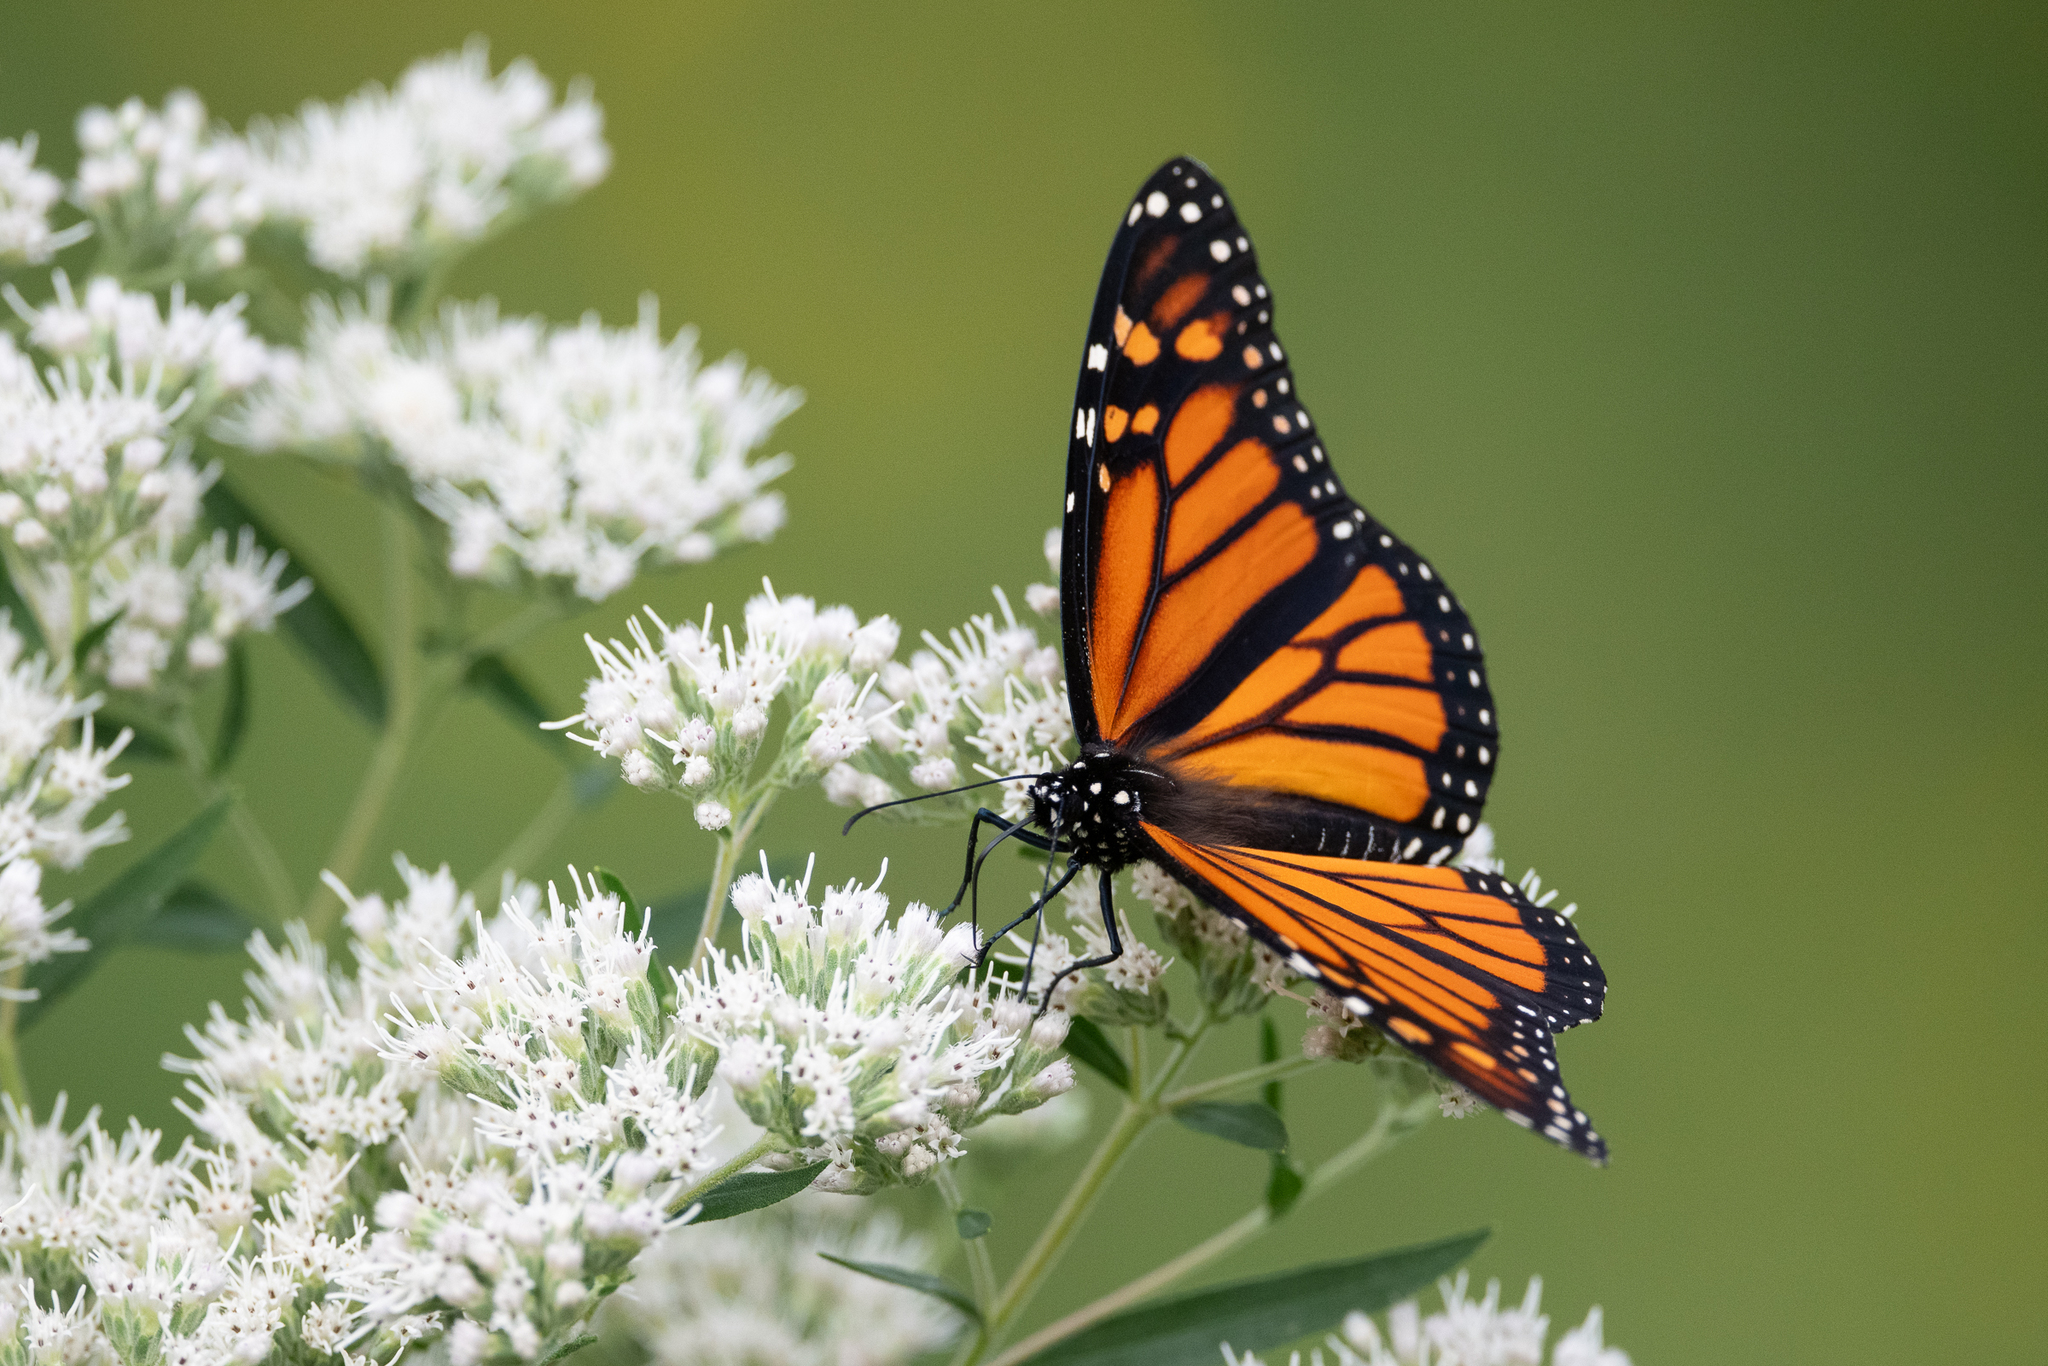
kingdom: Animalia
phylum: Arthropoda
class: Insecta
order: Lepidoptera
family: Nymphalidae
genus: Danaus
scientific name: Danaus plexippus
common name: Monarch
